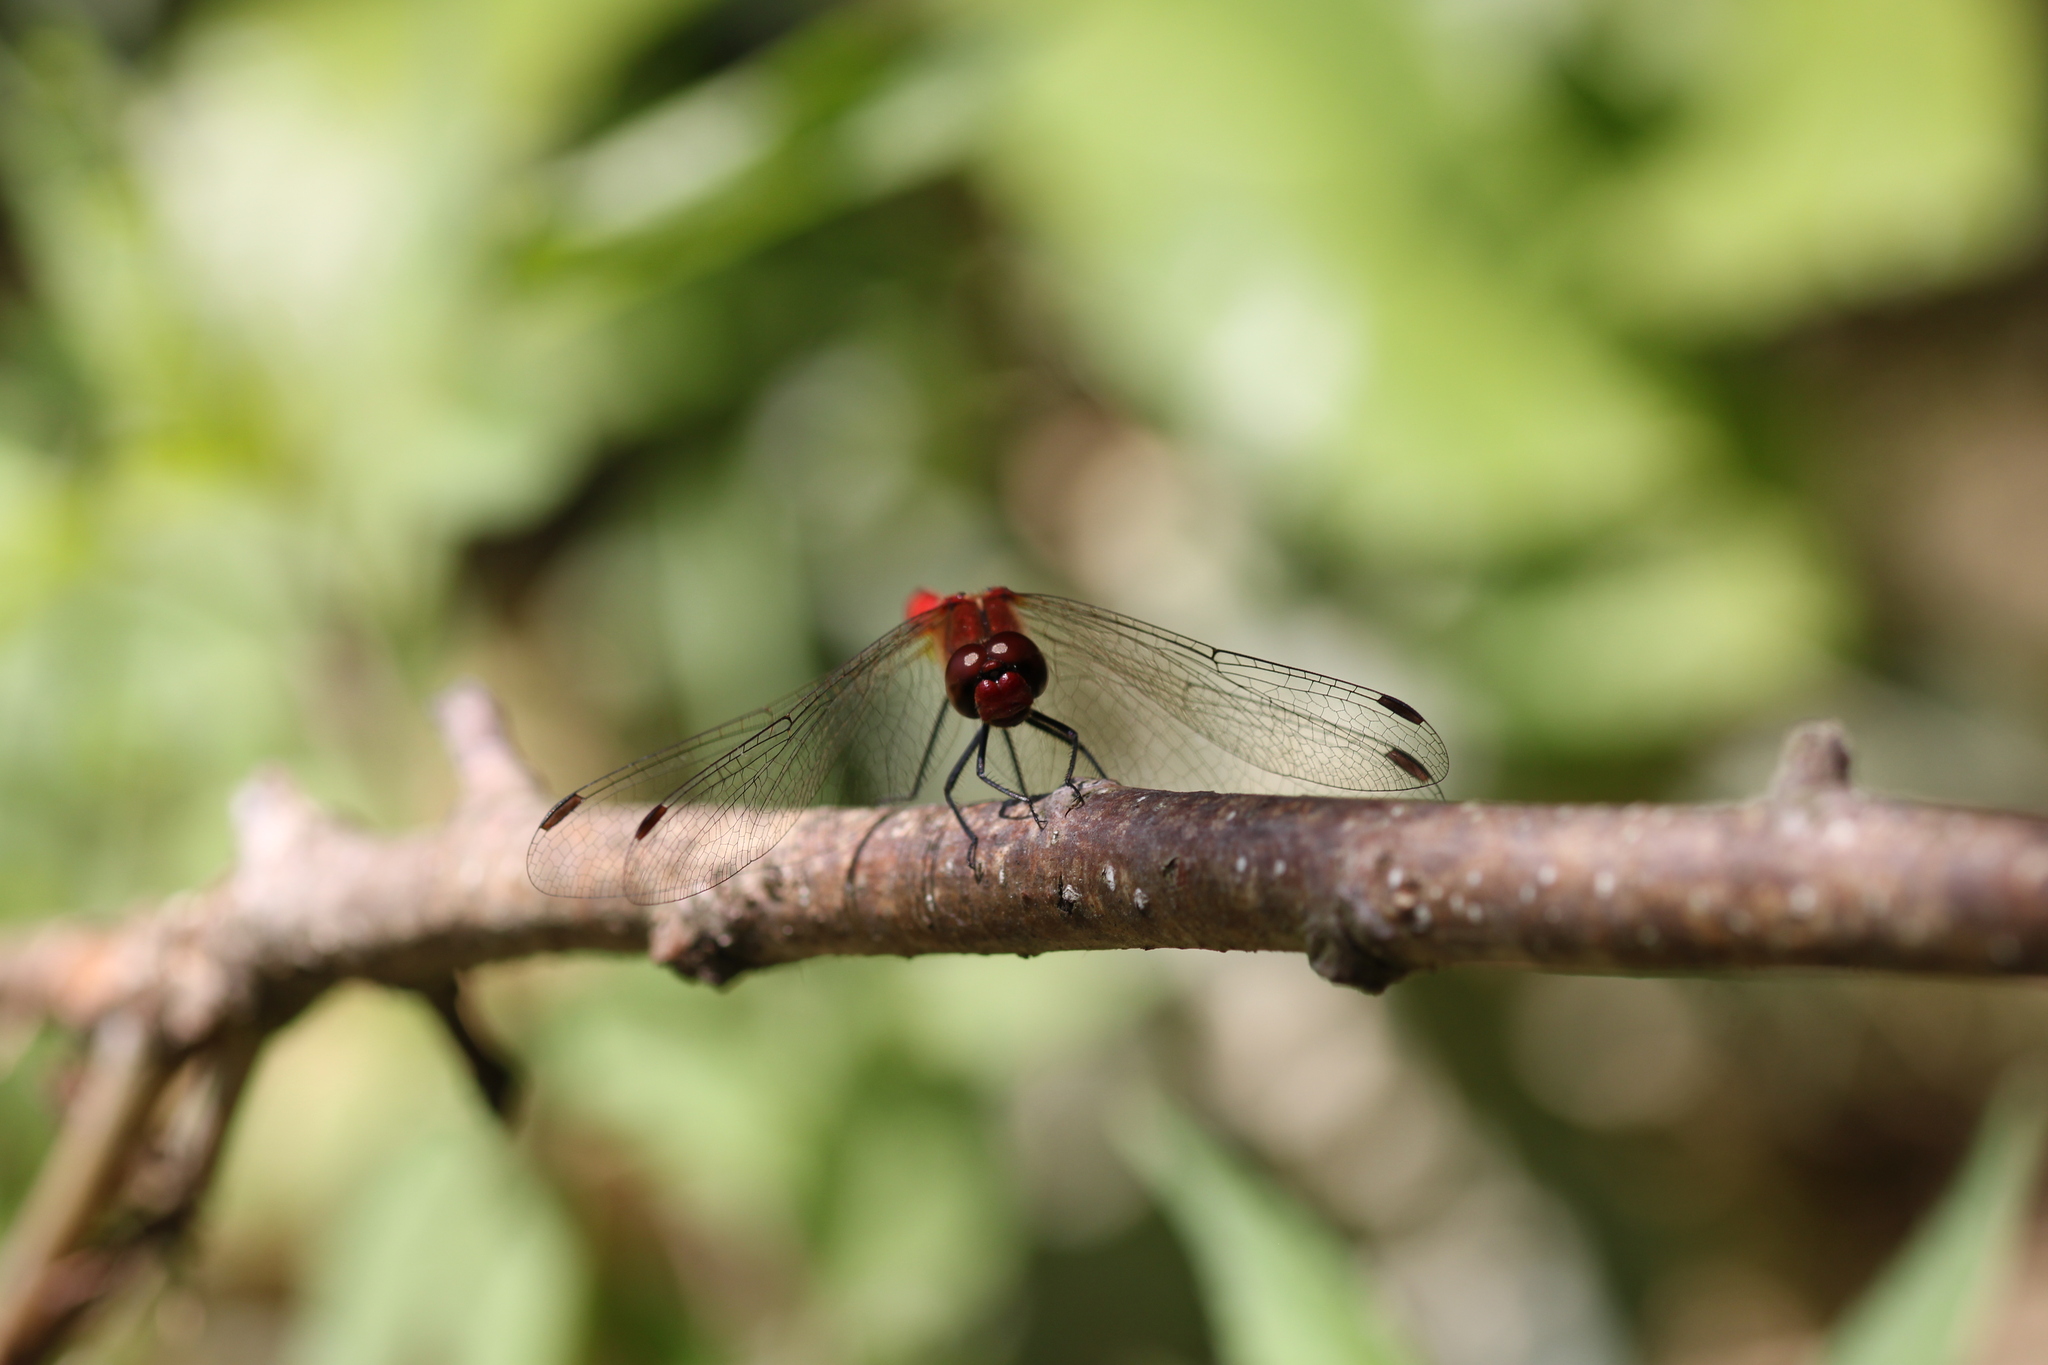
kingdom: Animalia
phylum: Arthropoda
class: Insecta
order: Odonata
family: Libellulidae
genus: Sympetrum
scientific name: Sympetrum sanguineum
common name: Ruddy darter
